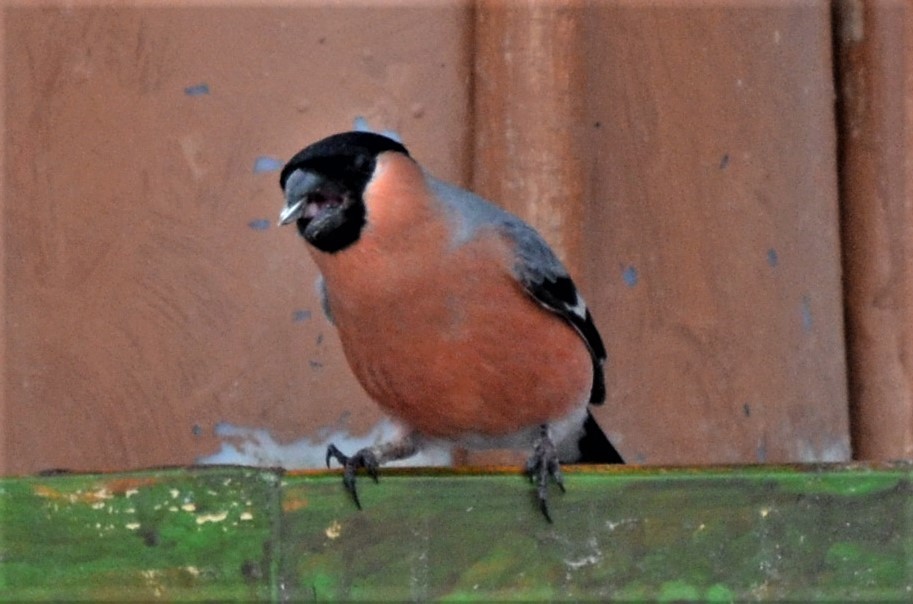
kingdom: Animalia
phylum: Chordata
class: Aves
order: Passeriformes
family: Fringillidae
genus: Pyrrhula
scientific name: Pyrrhula pyrrhula
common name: Eurasian bullfinch
